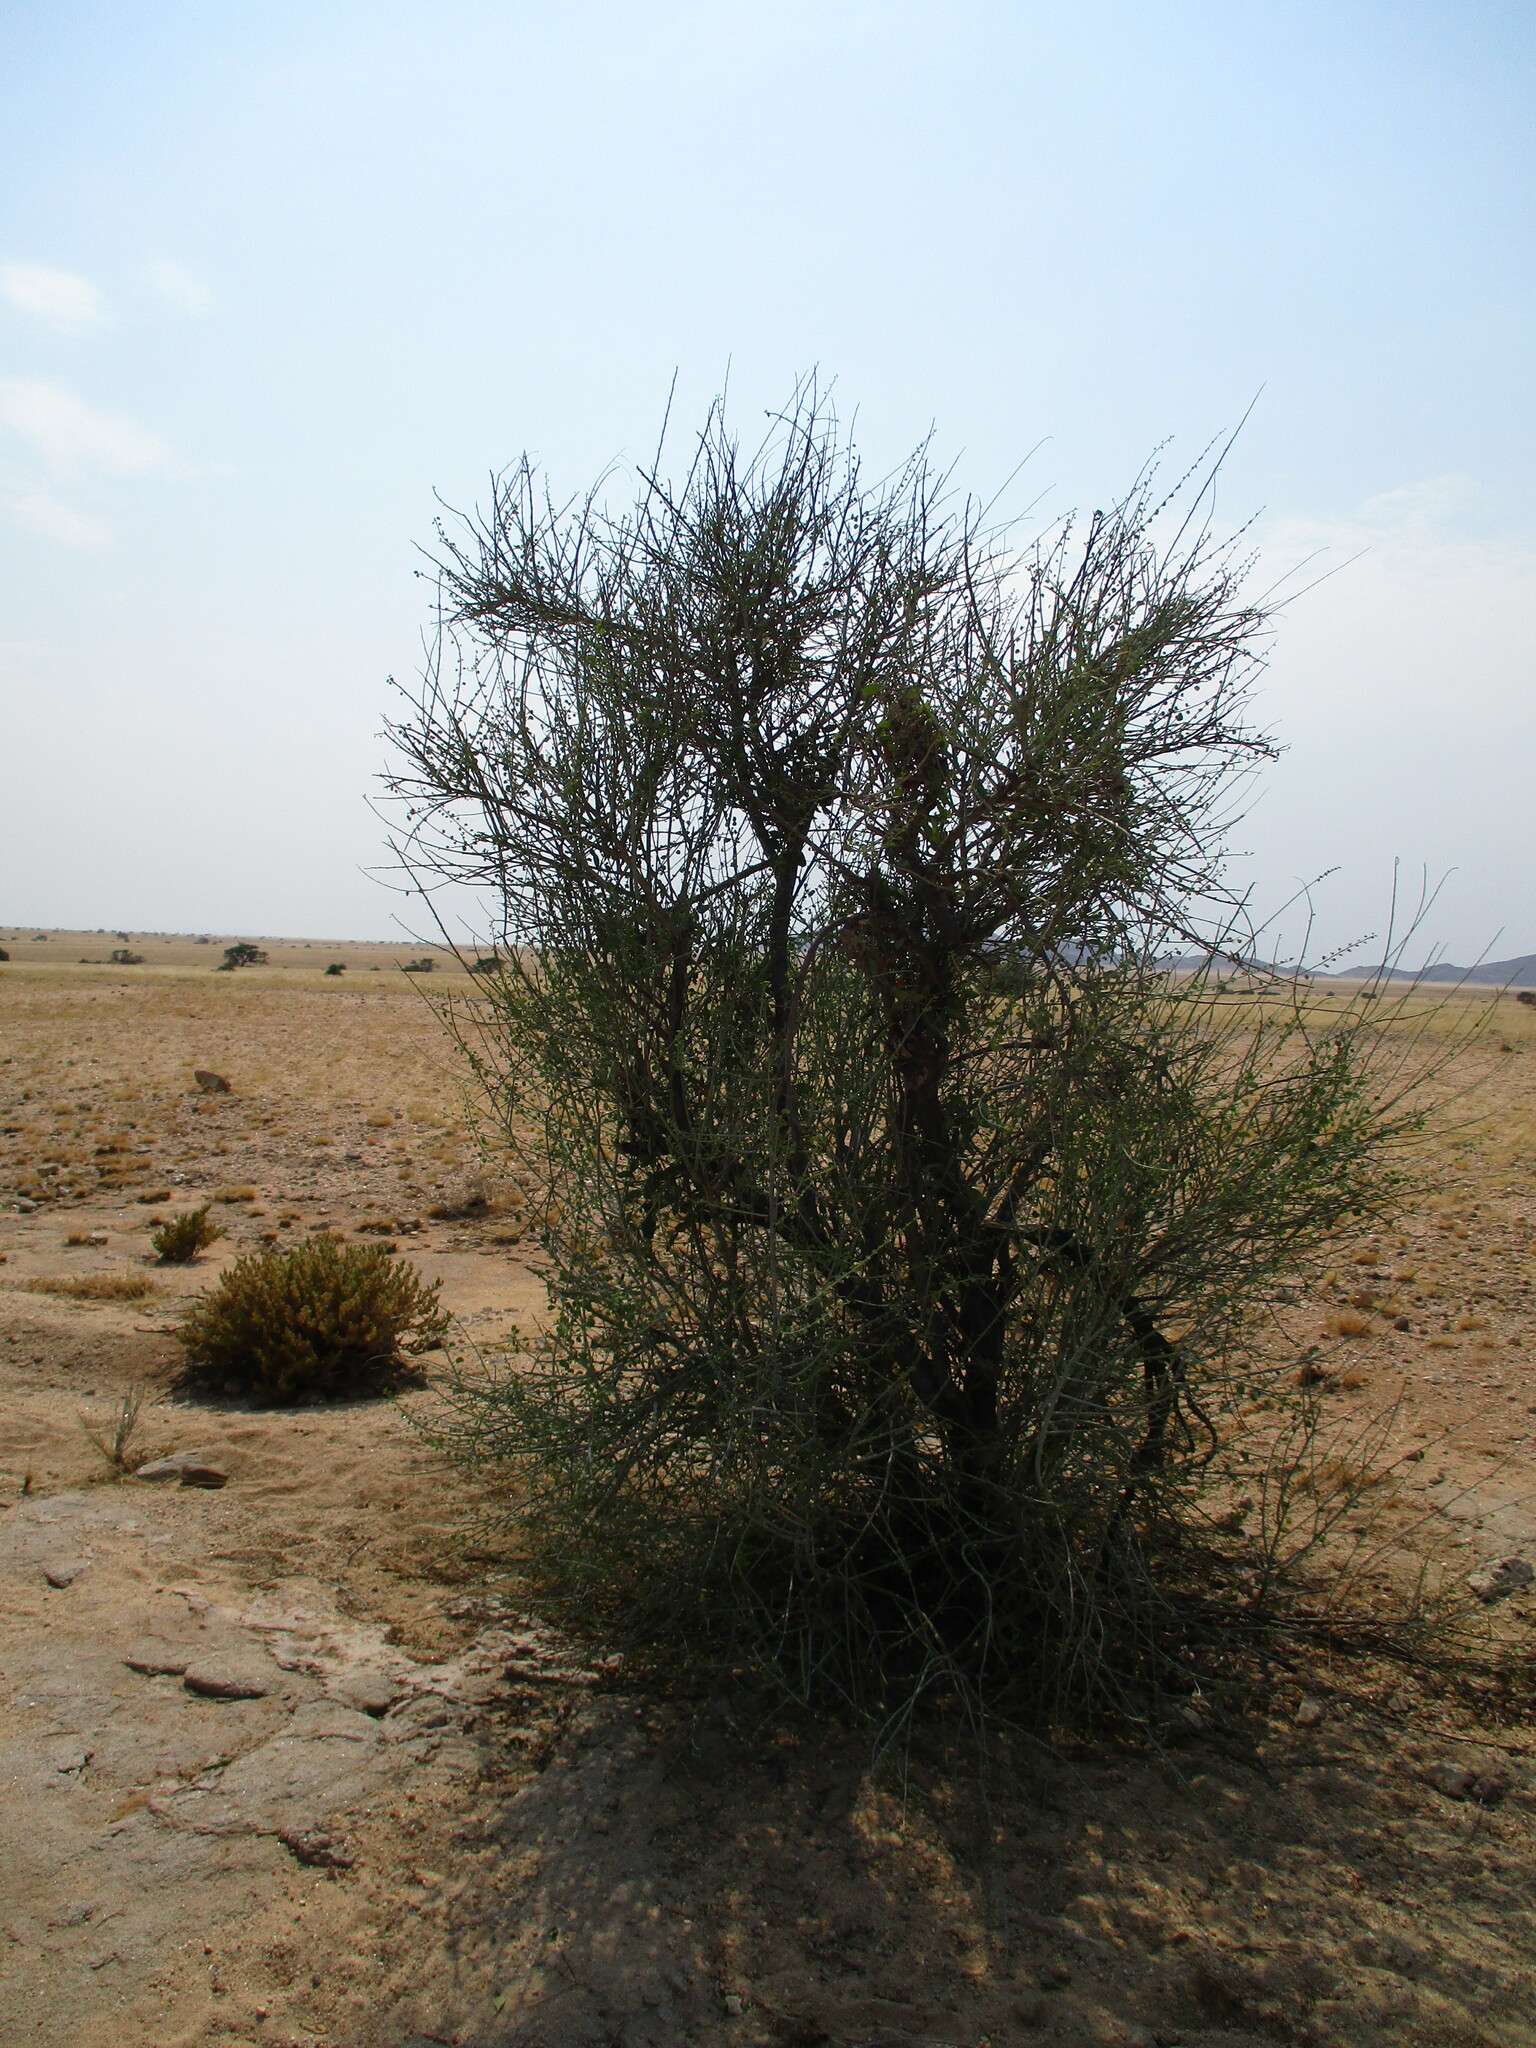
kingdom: Plantae
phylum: Tracheophyta
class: Magnoliopsida
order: Fabales
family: Fabaceae
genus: Adenolobus
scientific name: Adenolobus garipensis
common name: Butterfly-leaf
